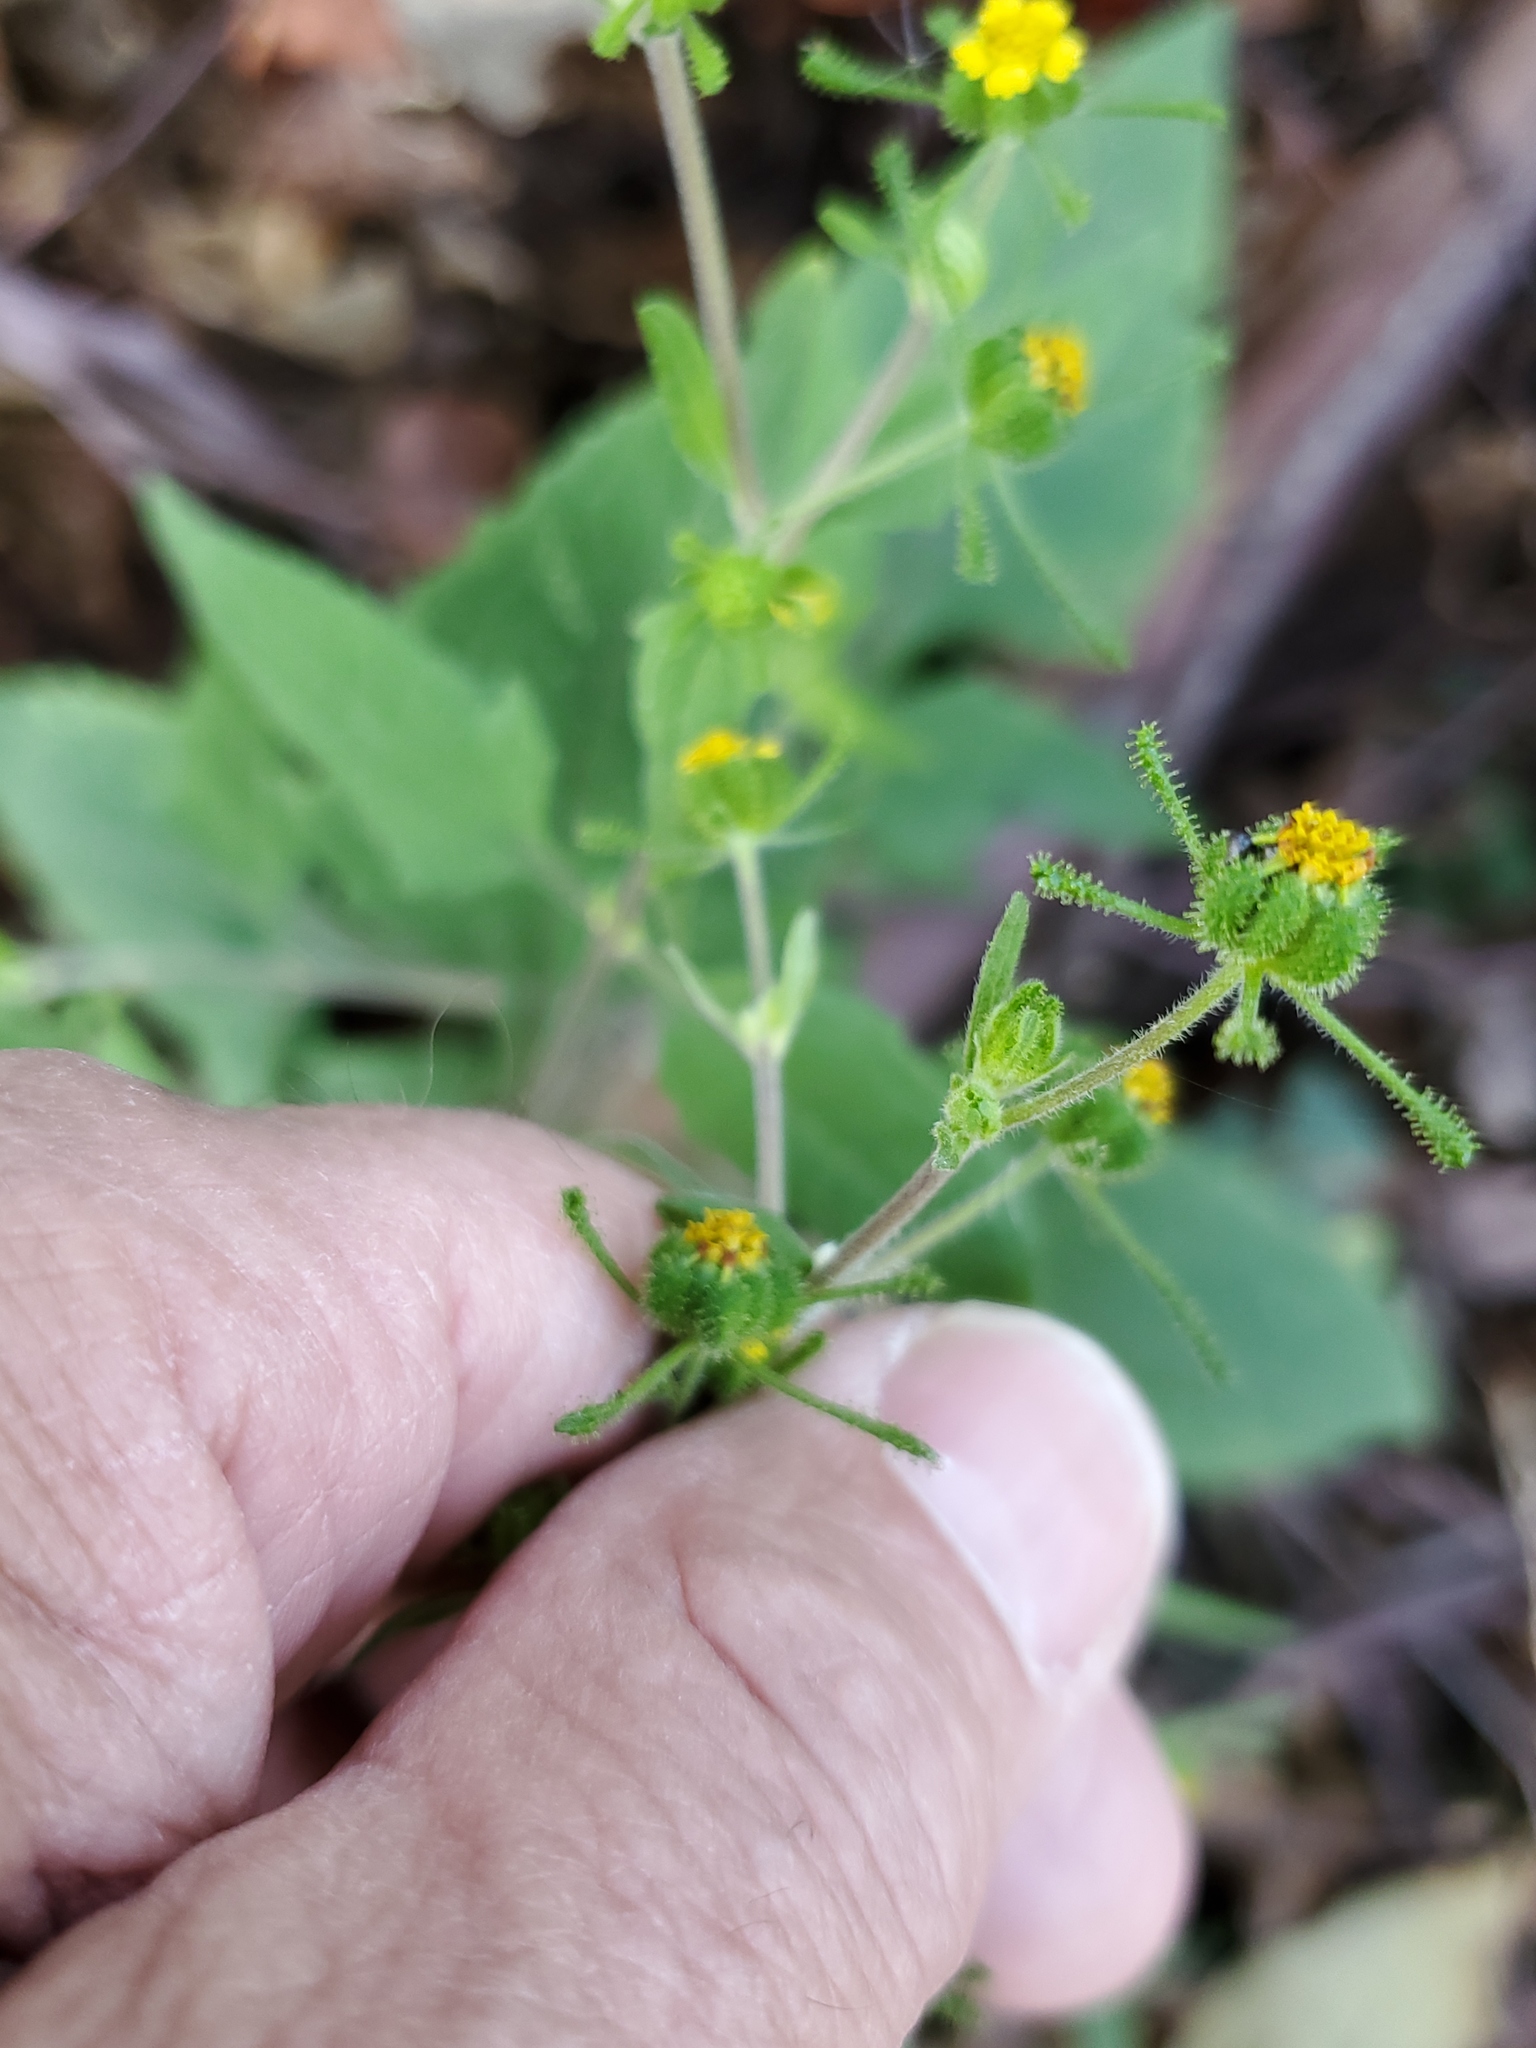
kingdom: Plantae
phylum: Tracheophyta
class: Magnoliopsida
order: Asterales
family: Asteraceae
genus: Sigesbeckia
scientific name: Sigesbeckia orientalis
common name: Eastern st paul's-wort
